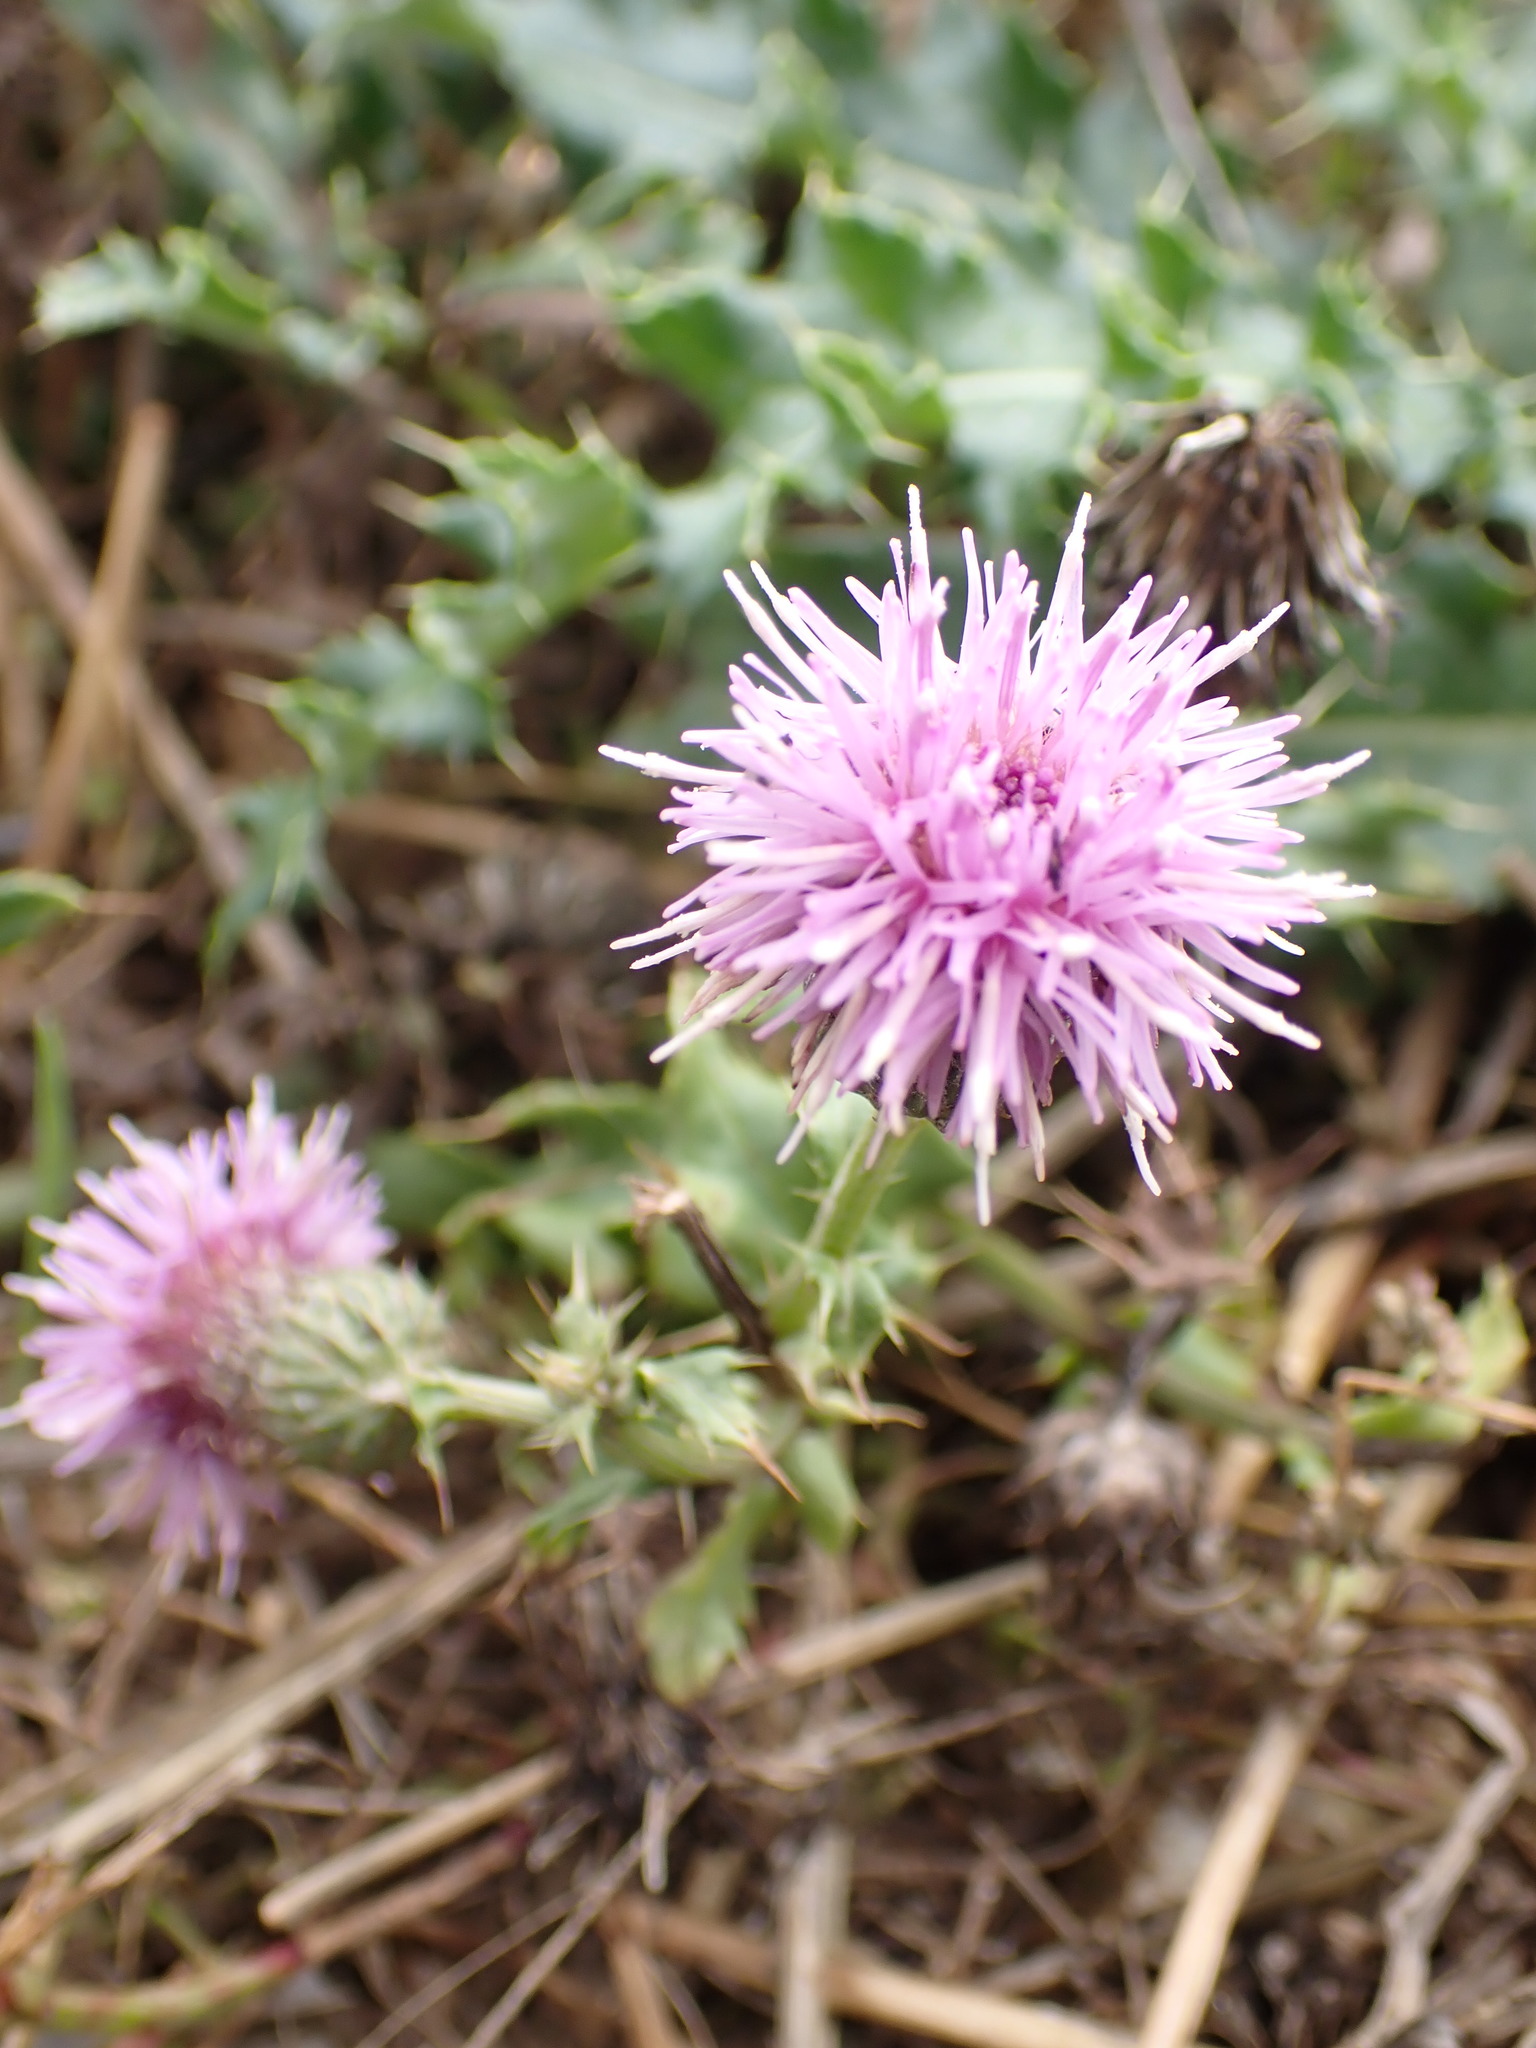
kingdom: Plantae
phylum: Tracheophyta
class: Magnoliopsida
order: Asterales
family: Asteraceae
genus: Cirsium
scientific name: Cirsium arvense
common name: Creeping thistle
